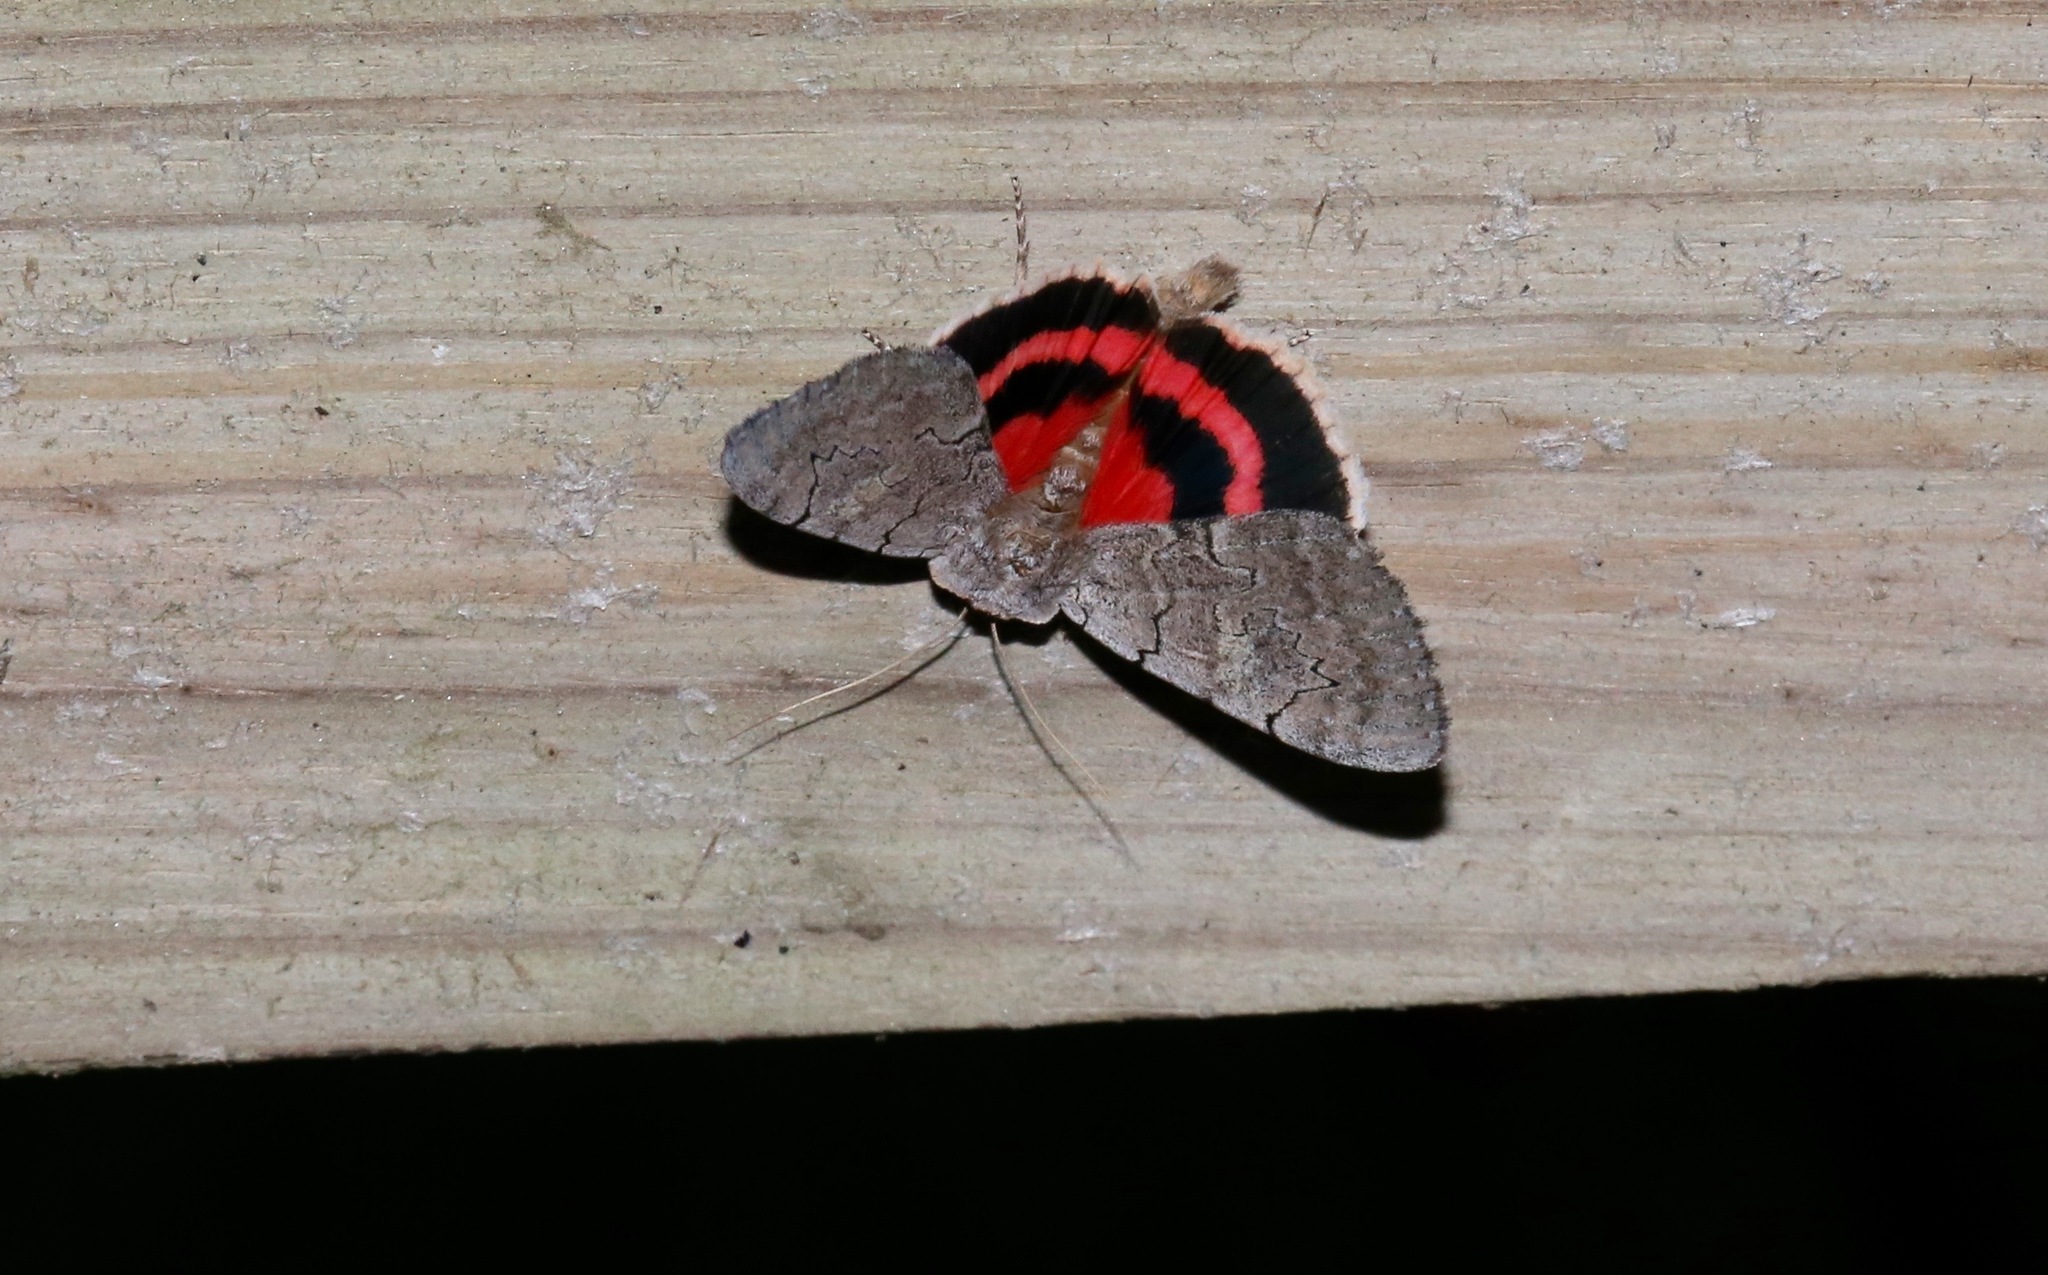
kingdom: Animalia
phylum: Arthropoda
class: Insecta
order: Lepidoptera
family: Erebidae
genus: Catocala
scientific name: Catocala concumbens
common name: Pink underwing
